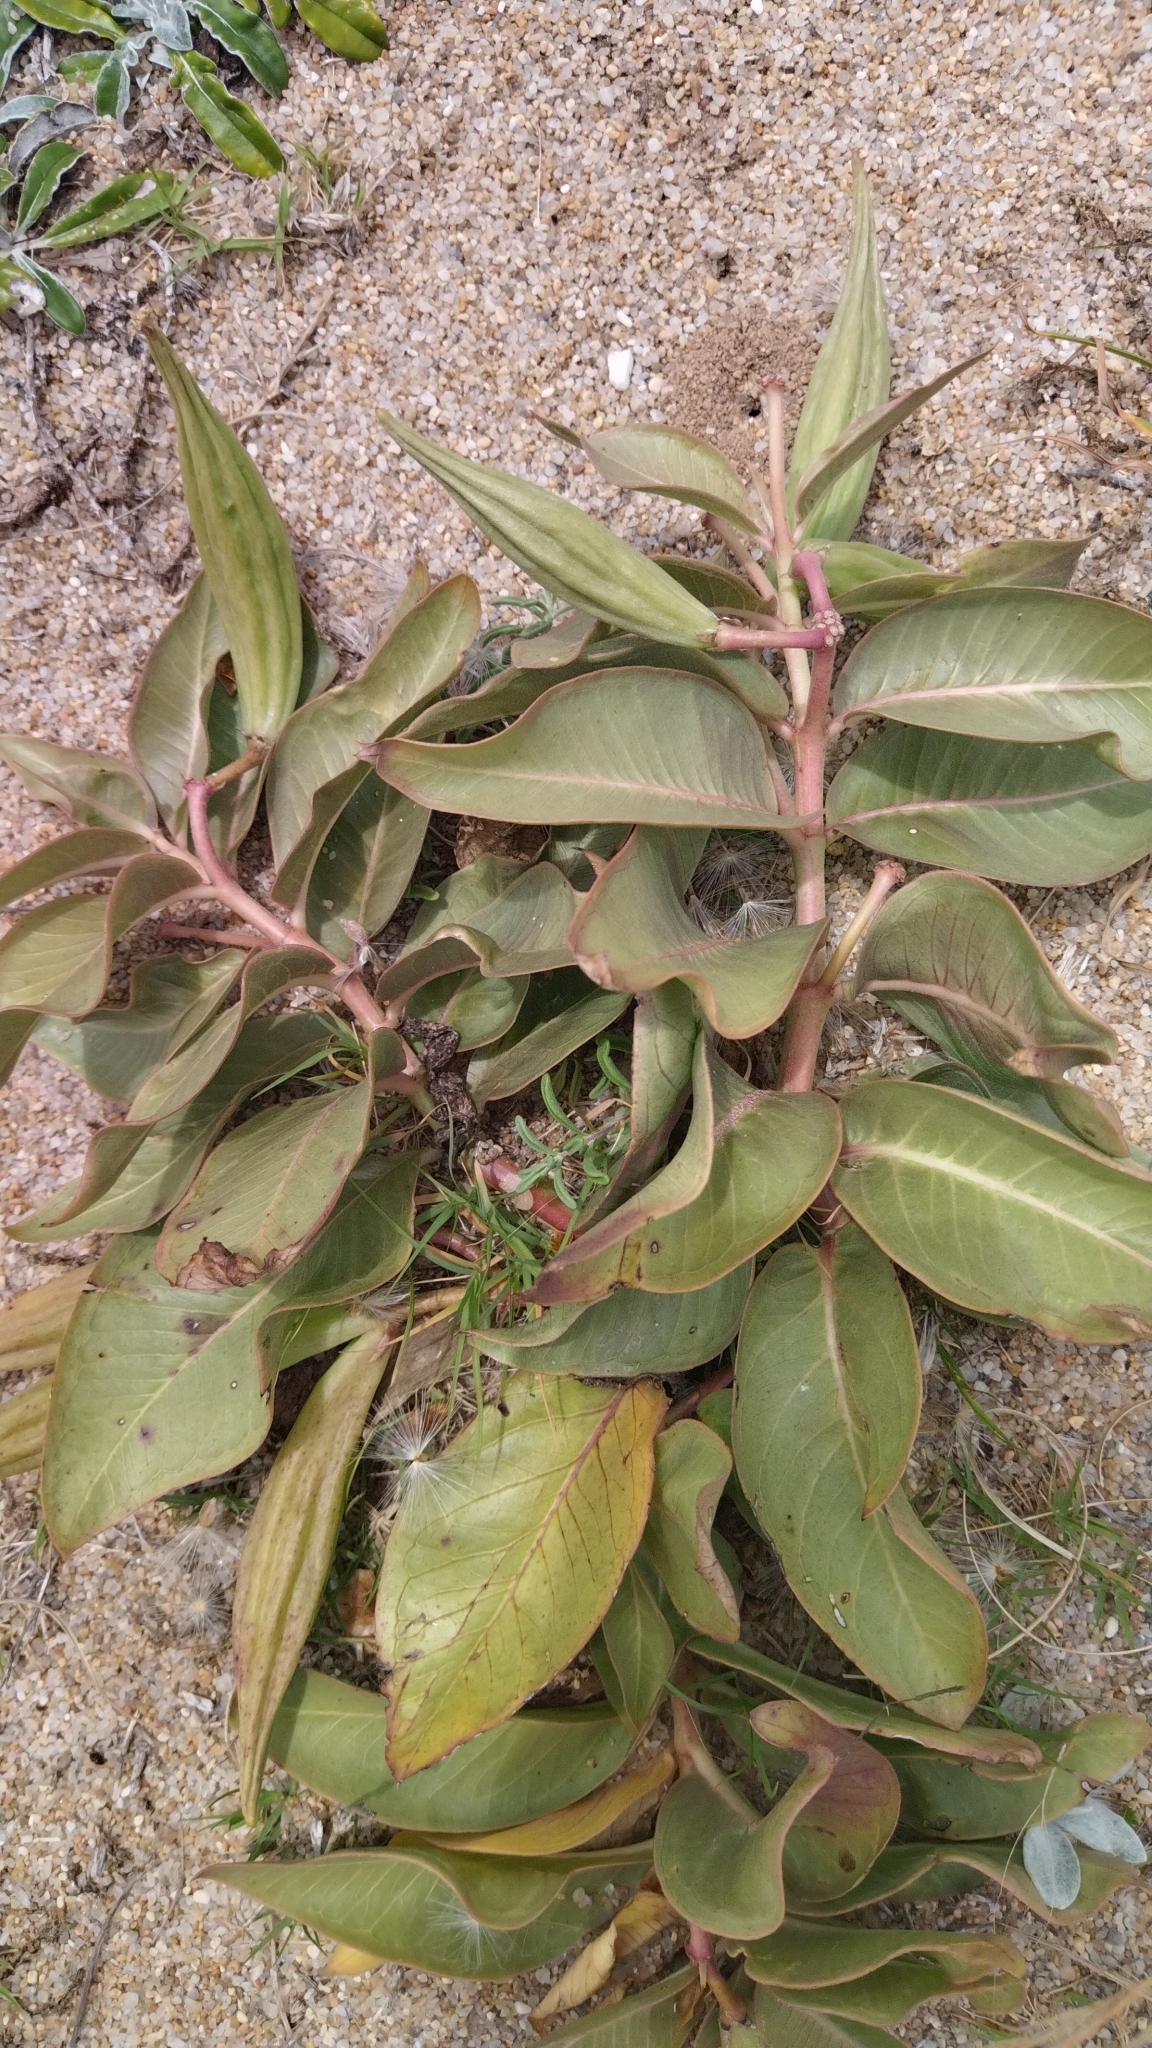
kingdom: Plantae
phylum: Tracheophyta
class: Magnoliopsida
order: Gentianales
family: Apocynaceae
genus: Asclepias
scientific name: Asclepias candida
